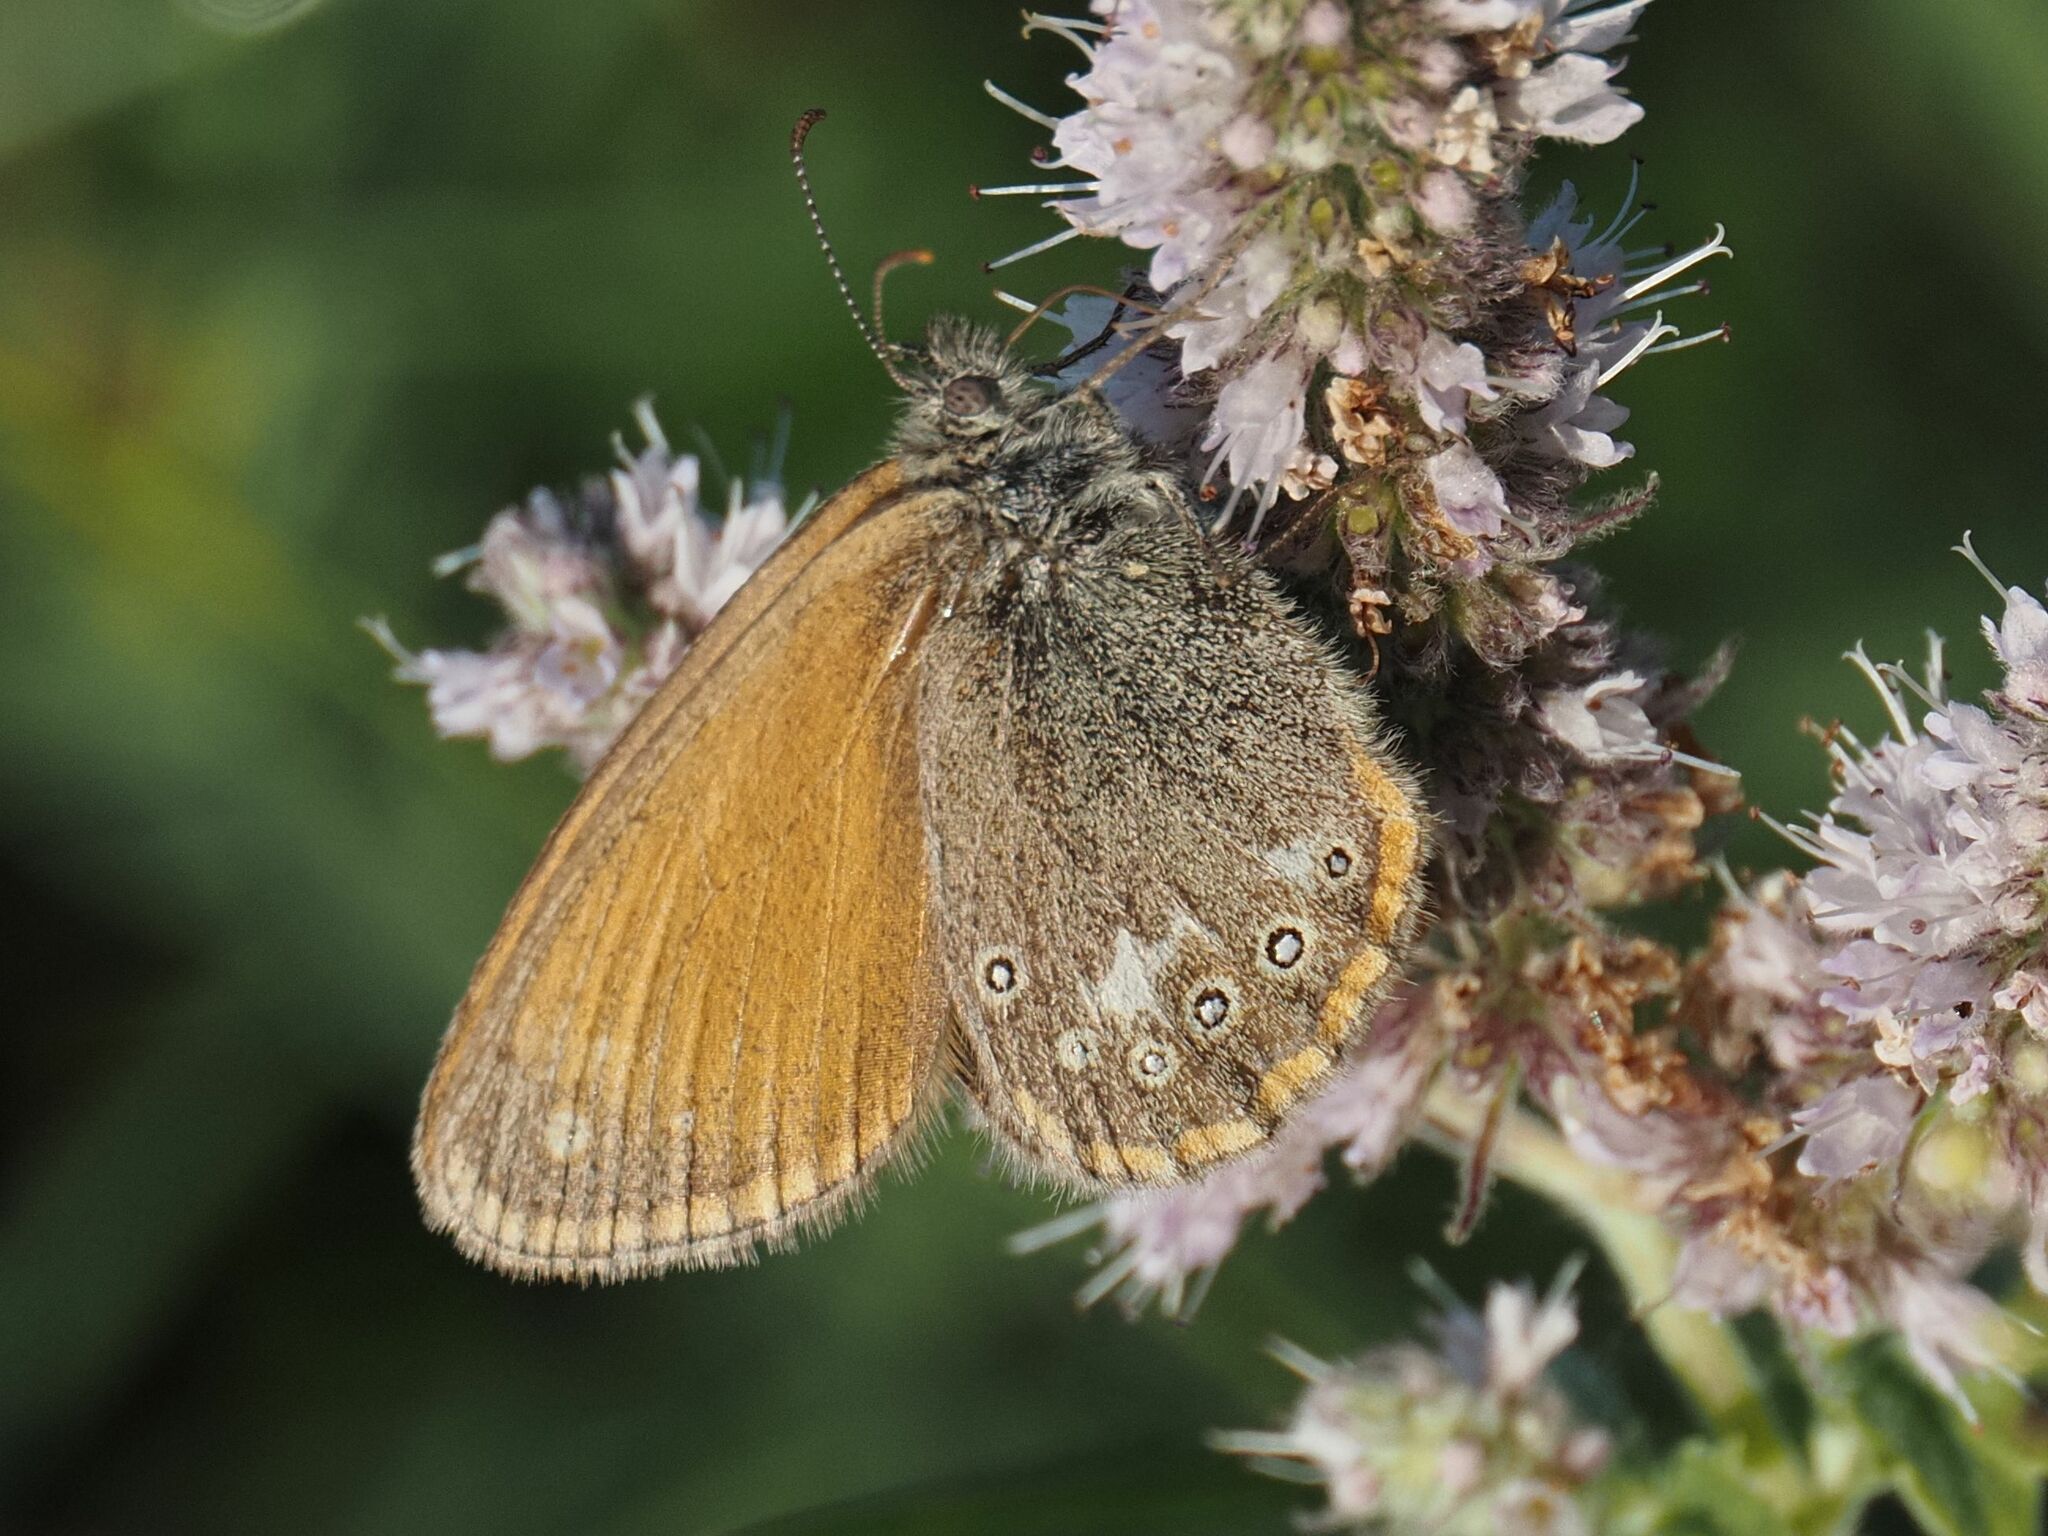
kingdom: Animalia
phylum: Arthropoda
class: Insecta
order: Lepidoptera
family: Nymphalidae
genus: Coenonympha
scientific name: Coenonympha iphis
